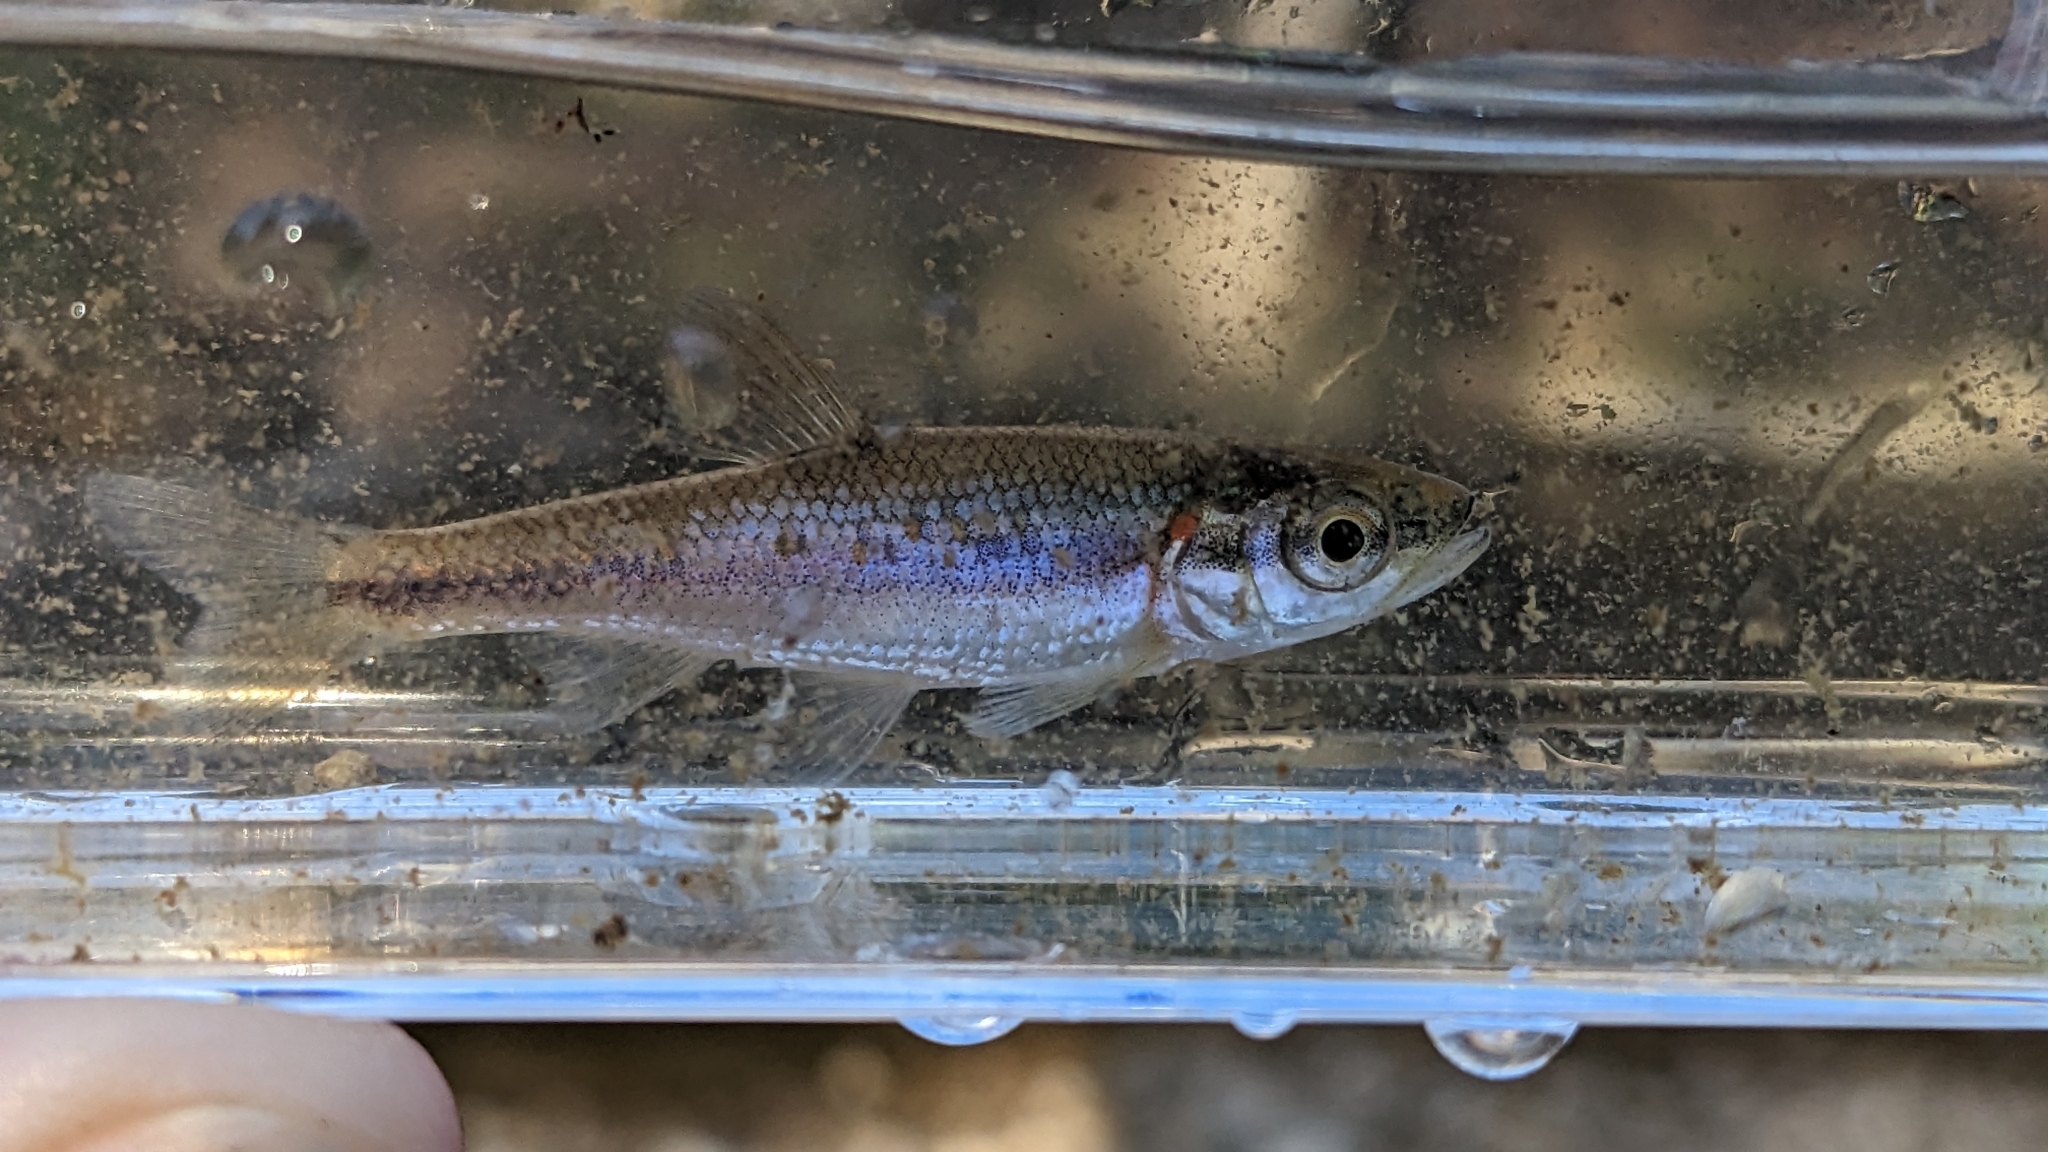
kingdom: Animalia
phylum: Chordata
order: Cypriniformes
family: Cyprinidae
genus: Clinostomus
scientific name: Clinostomus funduloides
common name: Rosyside dace
